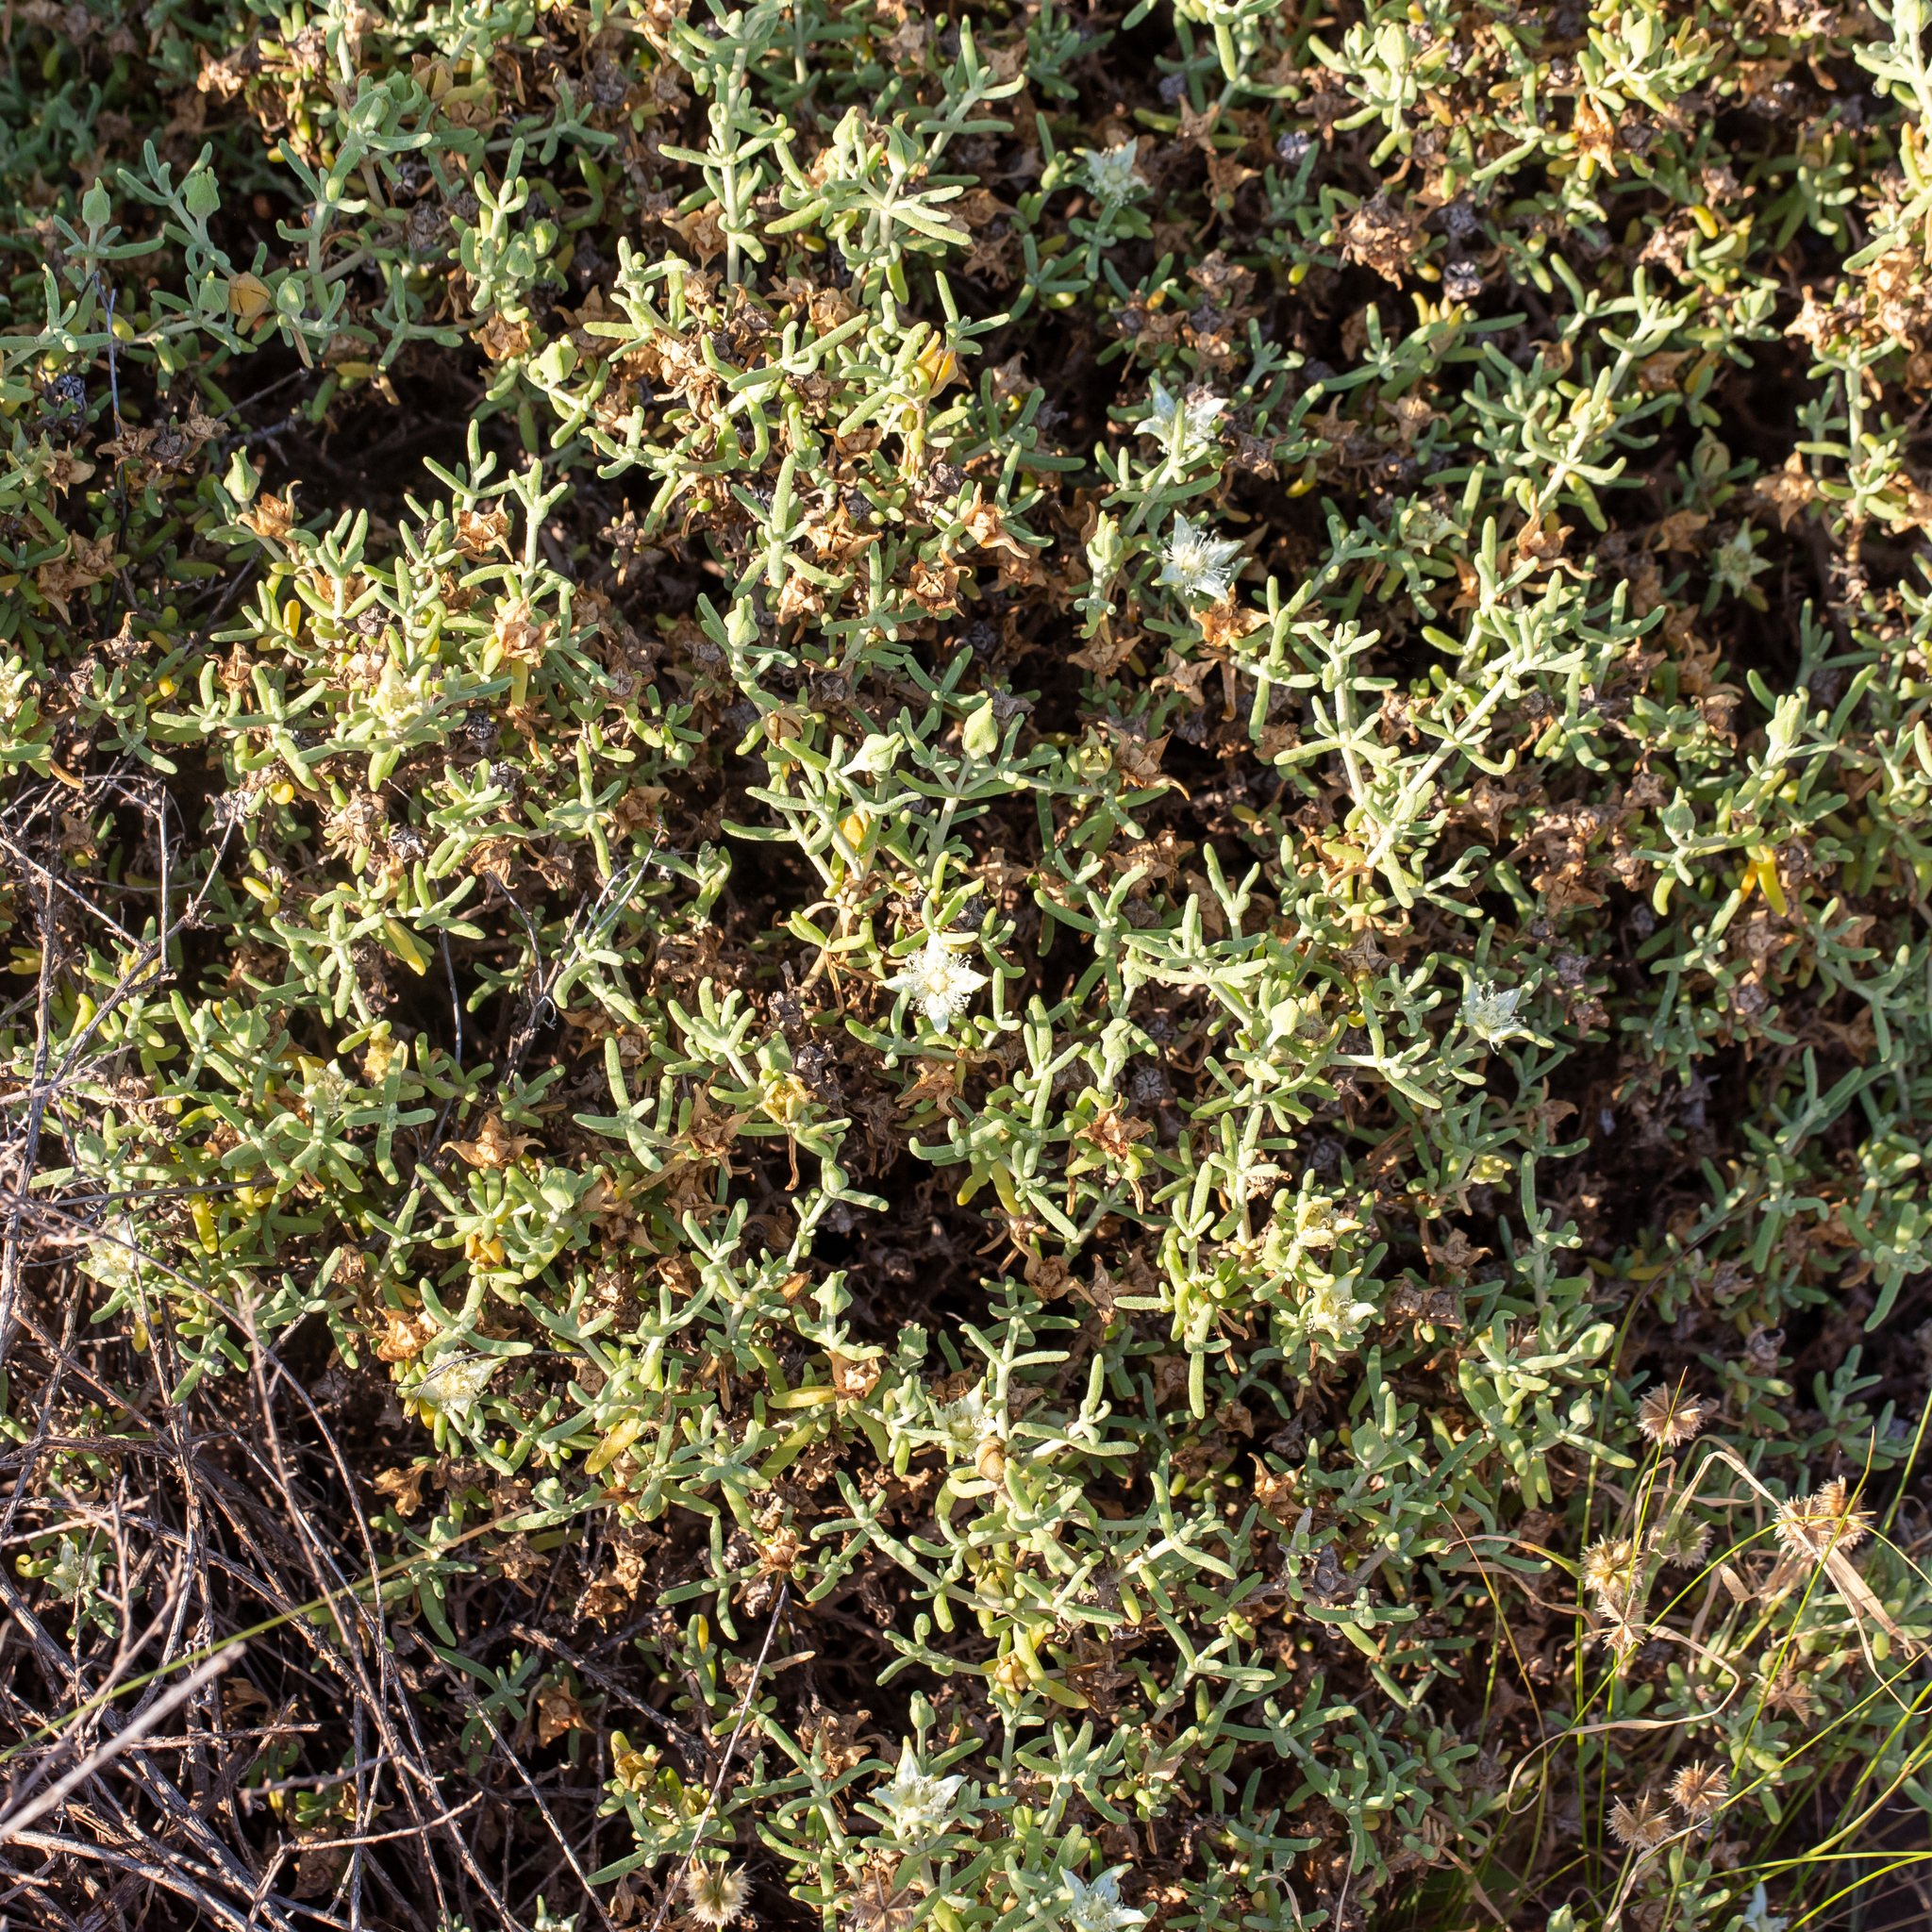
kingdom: Plantae
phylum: Tracheophyta
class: Magnoliopsida
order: Caryophyllales
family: Aizoaceae
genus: Gunniopsis
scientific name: Gunniopsis quadrifida
